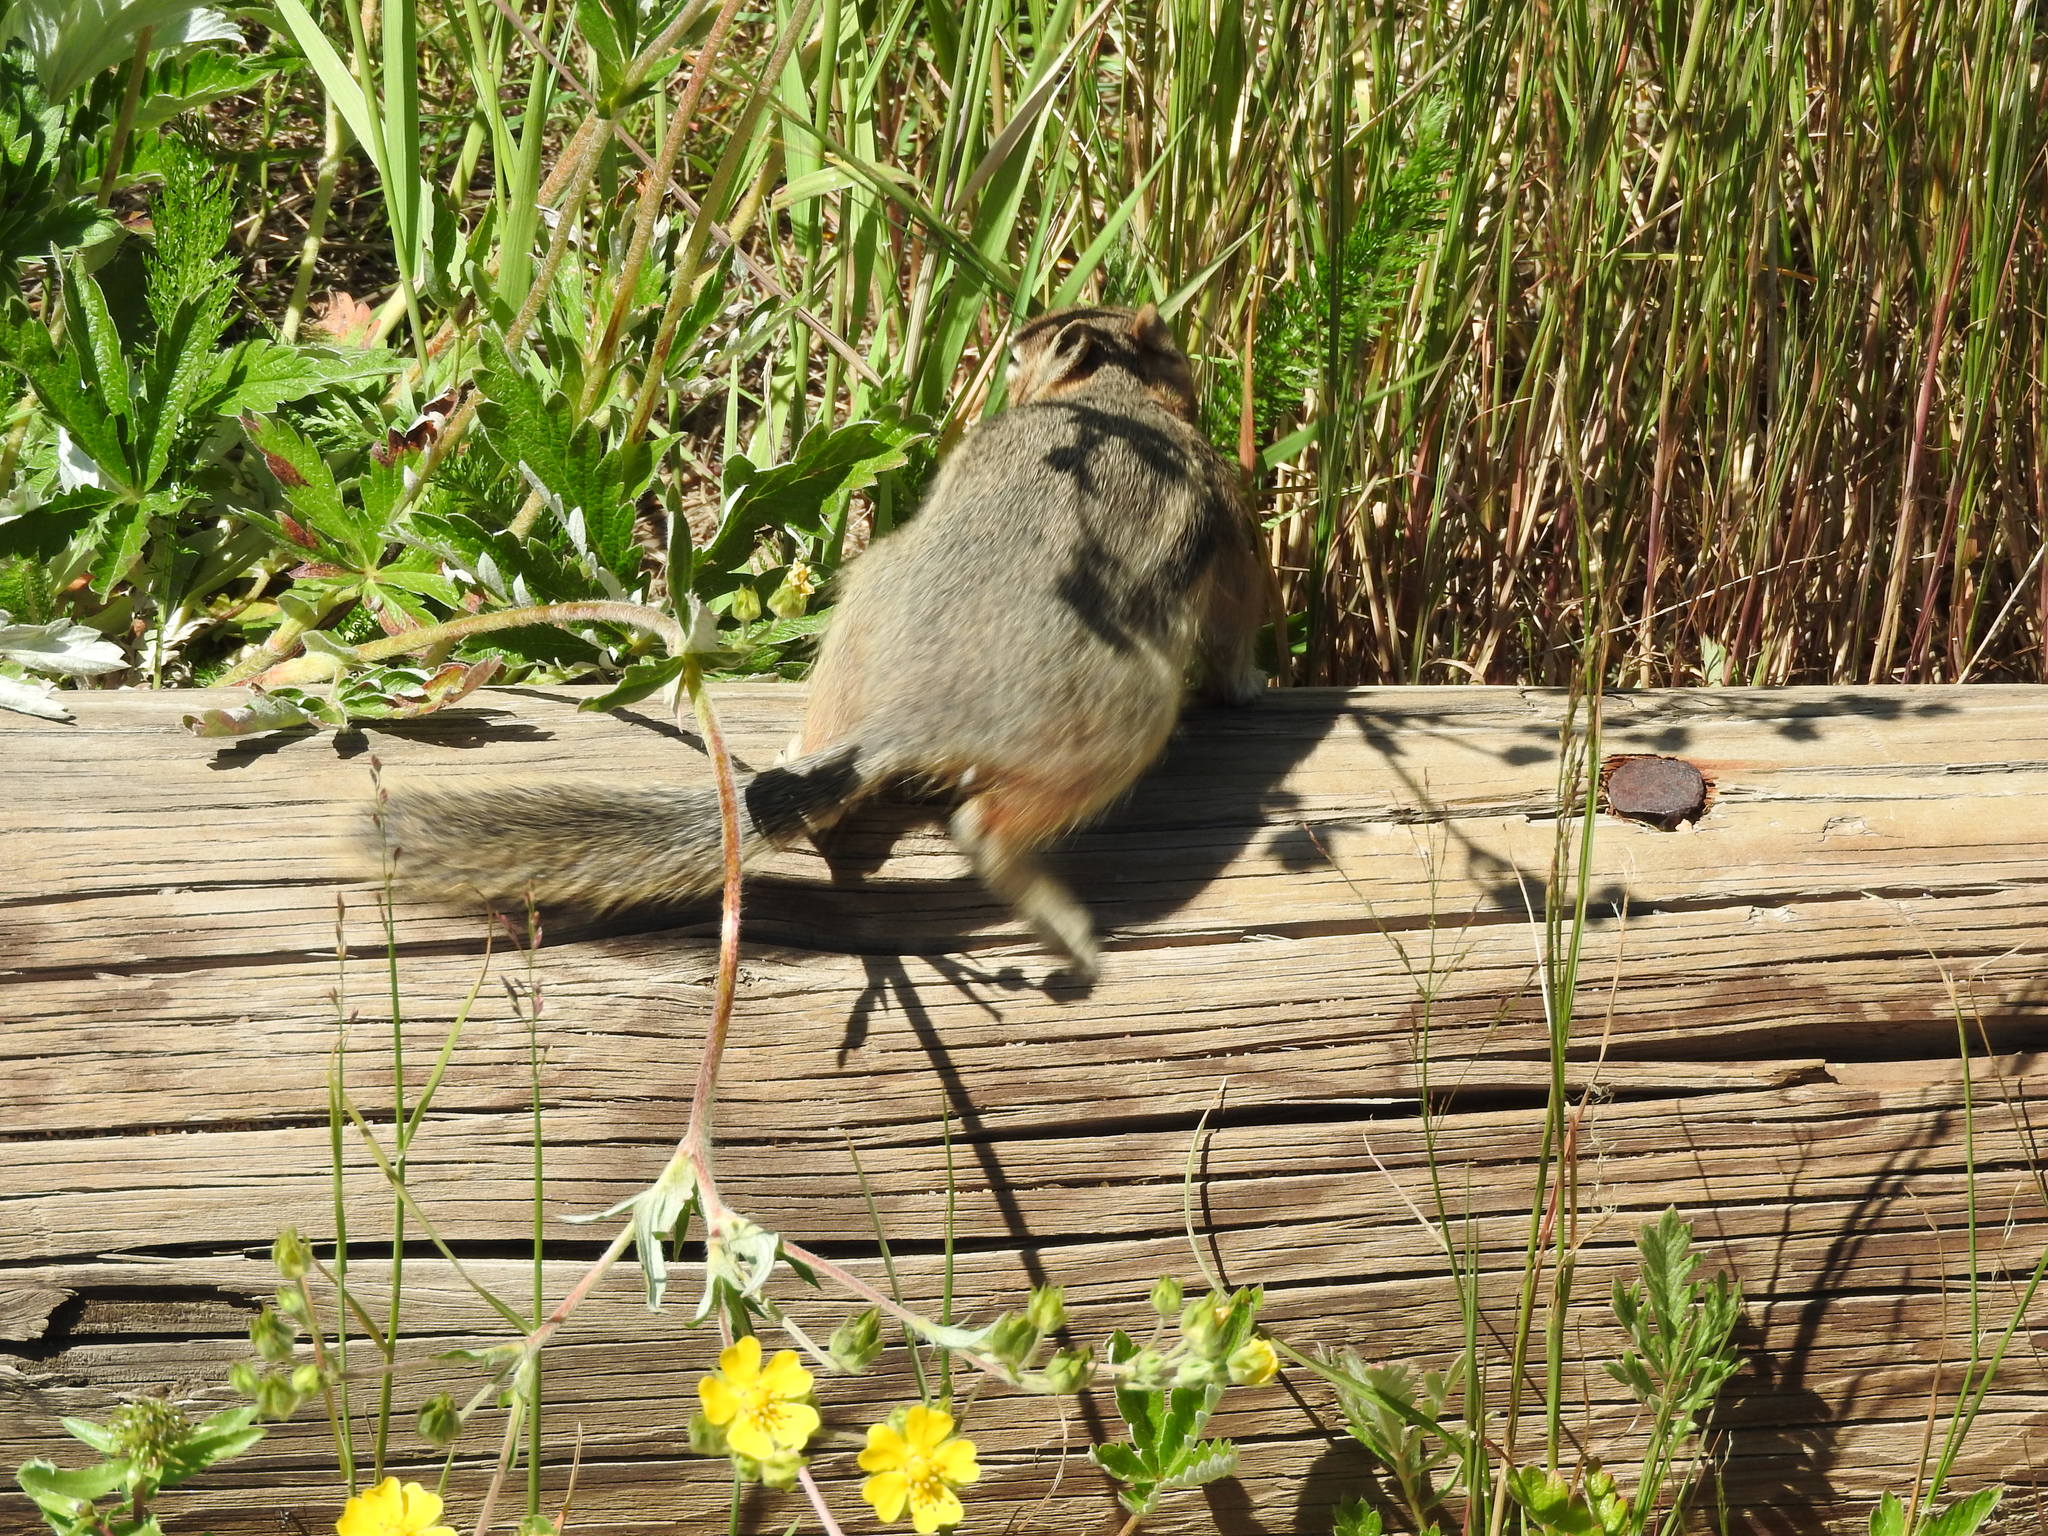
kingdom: Animalia
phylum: Chordata
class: Mammalia
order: Rodentia
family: Sciuridae
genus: Tamiasciurus
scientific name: Tamiasciurus hudsonicus
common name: Red squirrel
